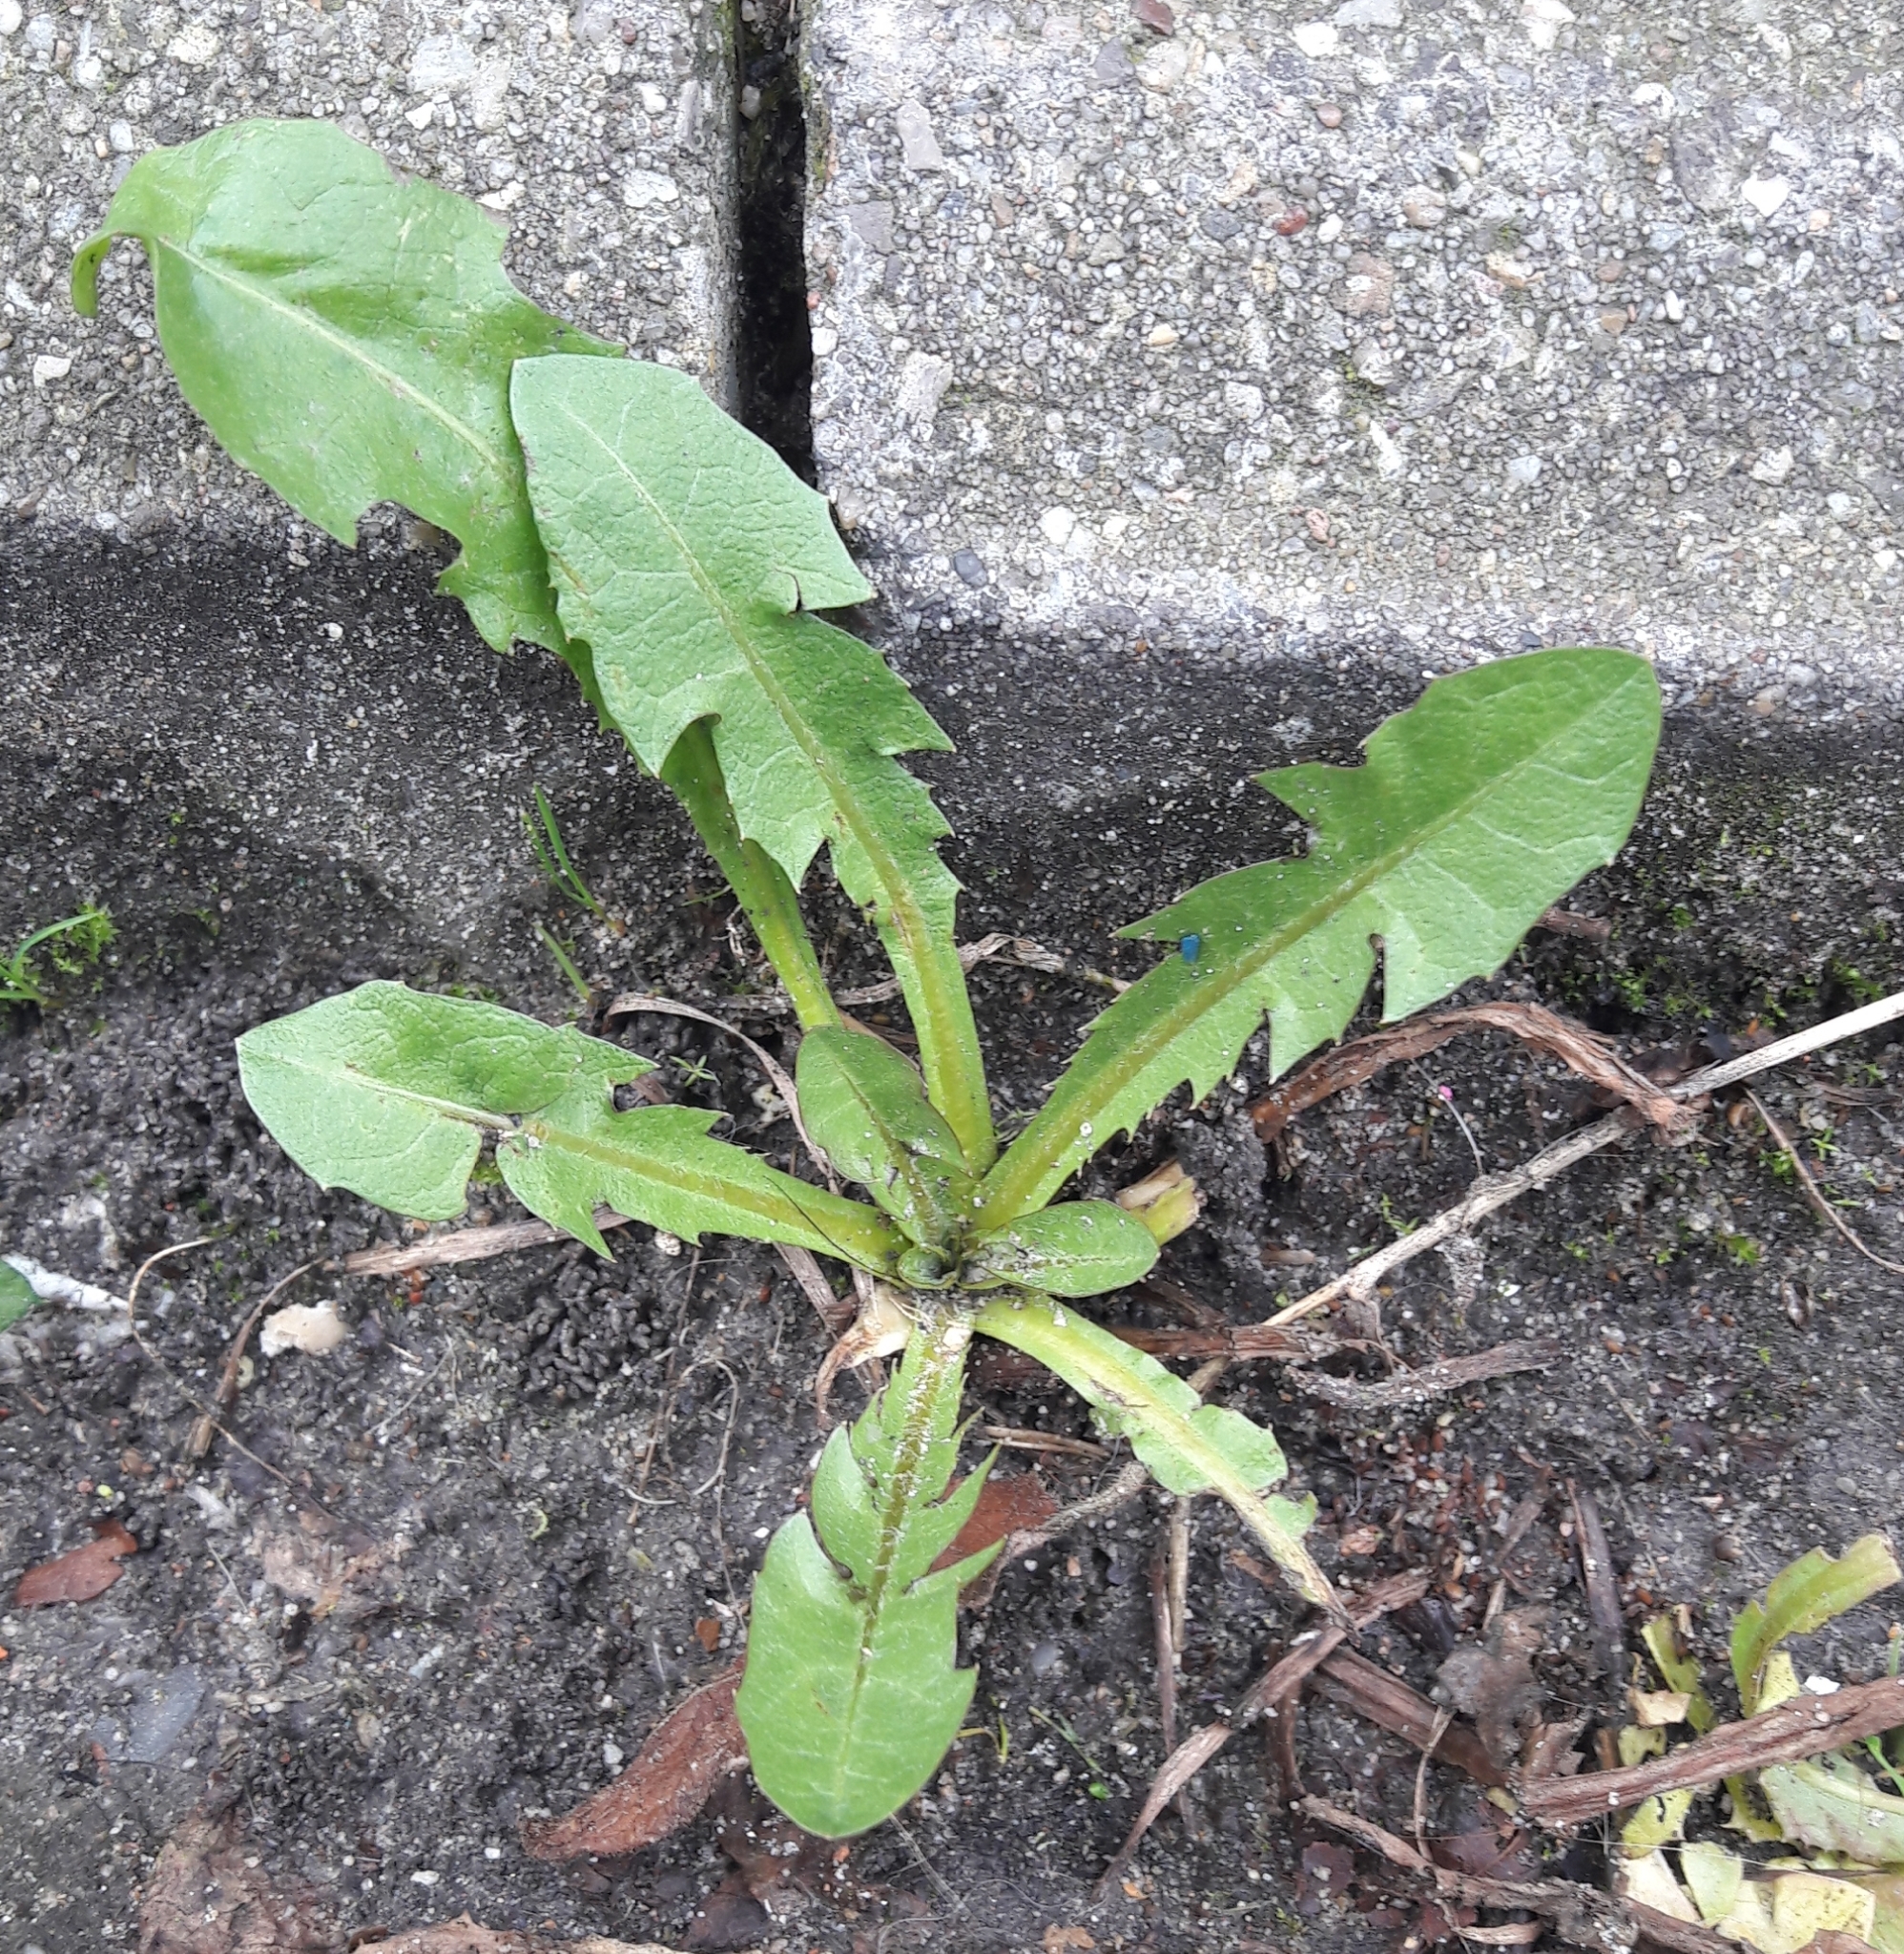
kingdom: Plantae
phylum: Tracheophyta
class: Magnoliopsida
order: Asterales
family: Asteraceae
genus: Taraxacum
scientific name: Taraxacum officinale
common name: Common dandelion
